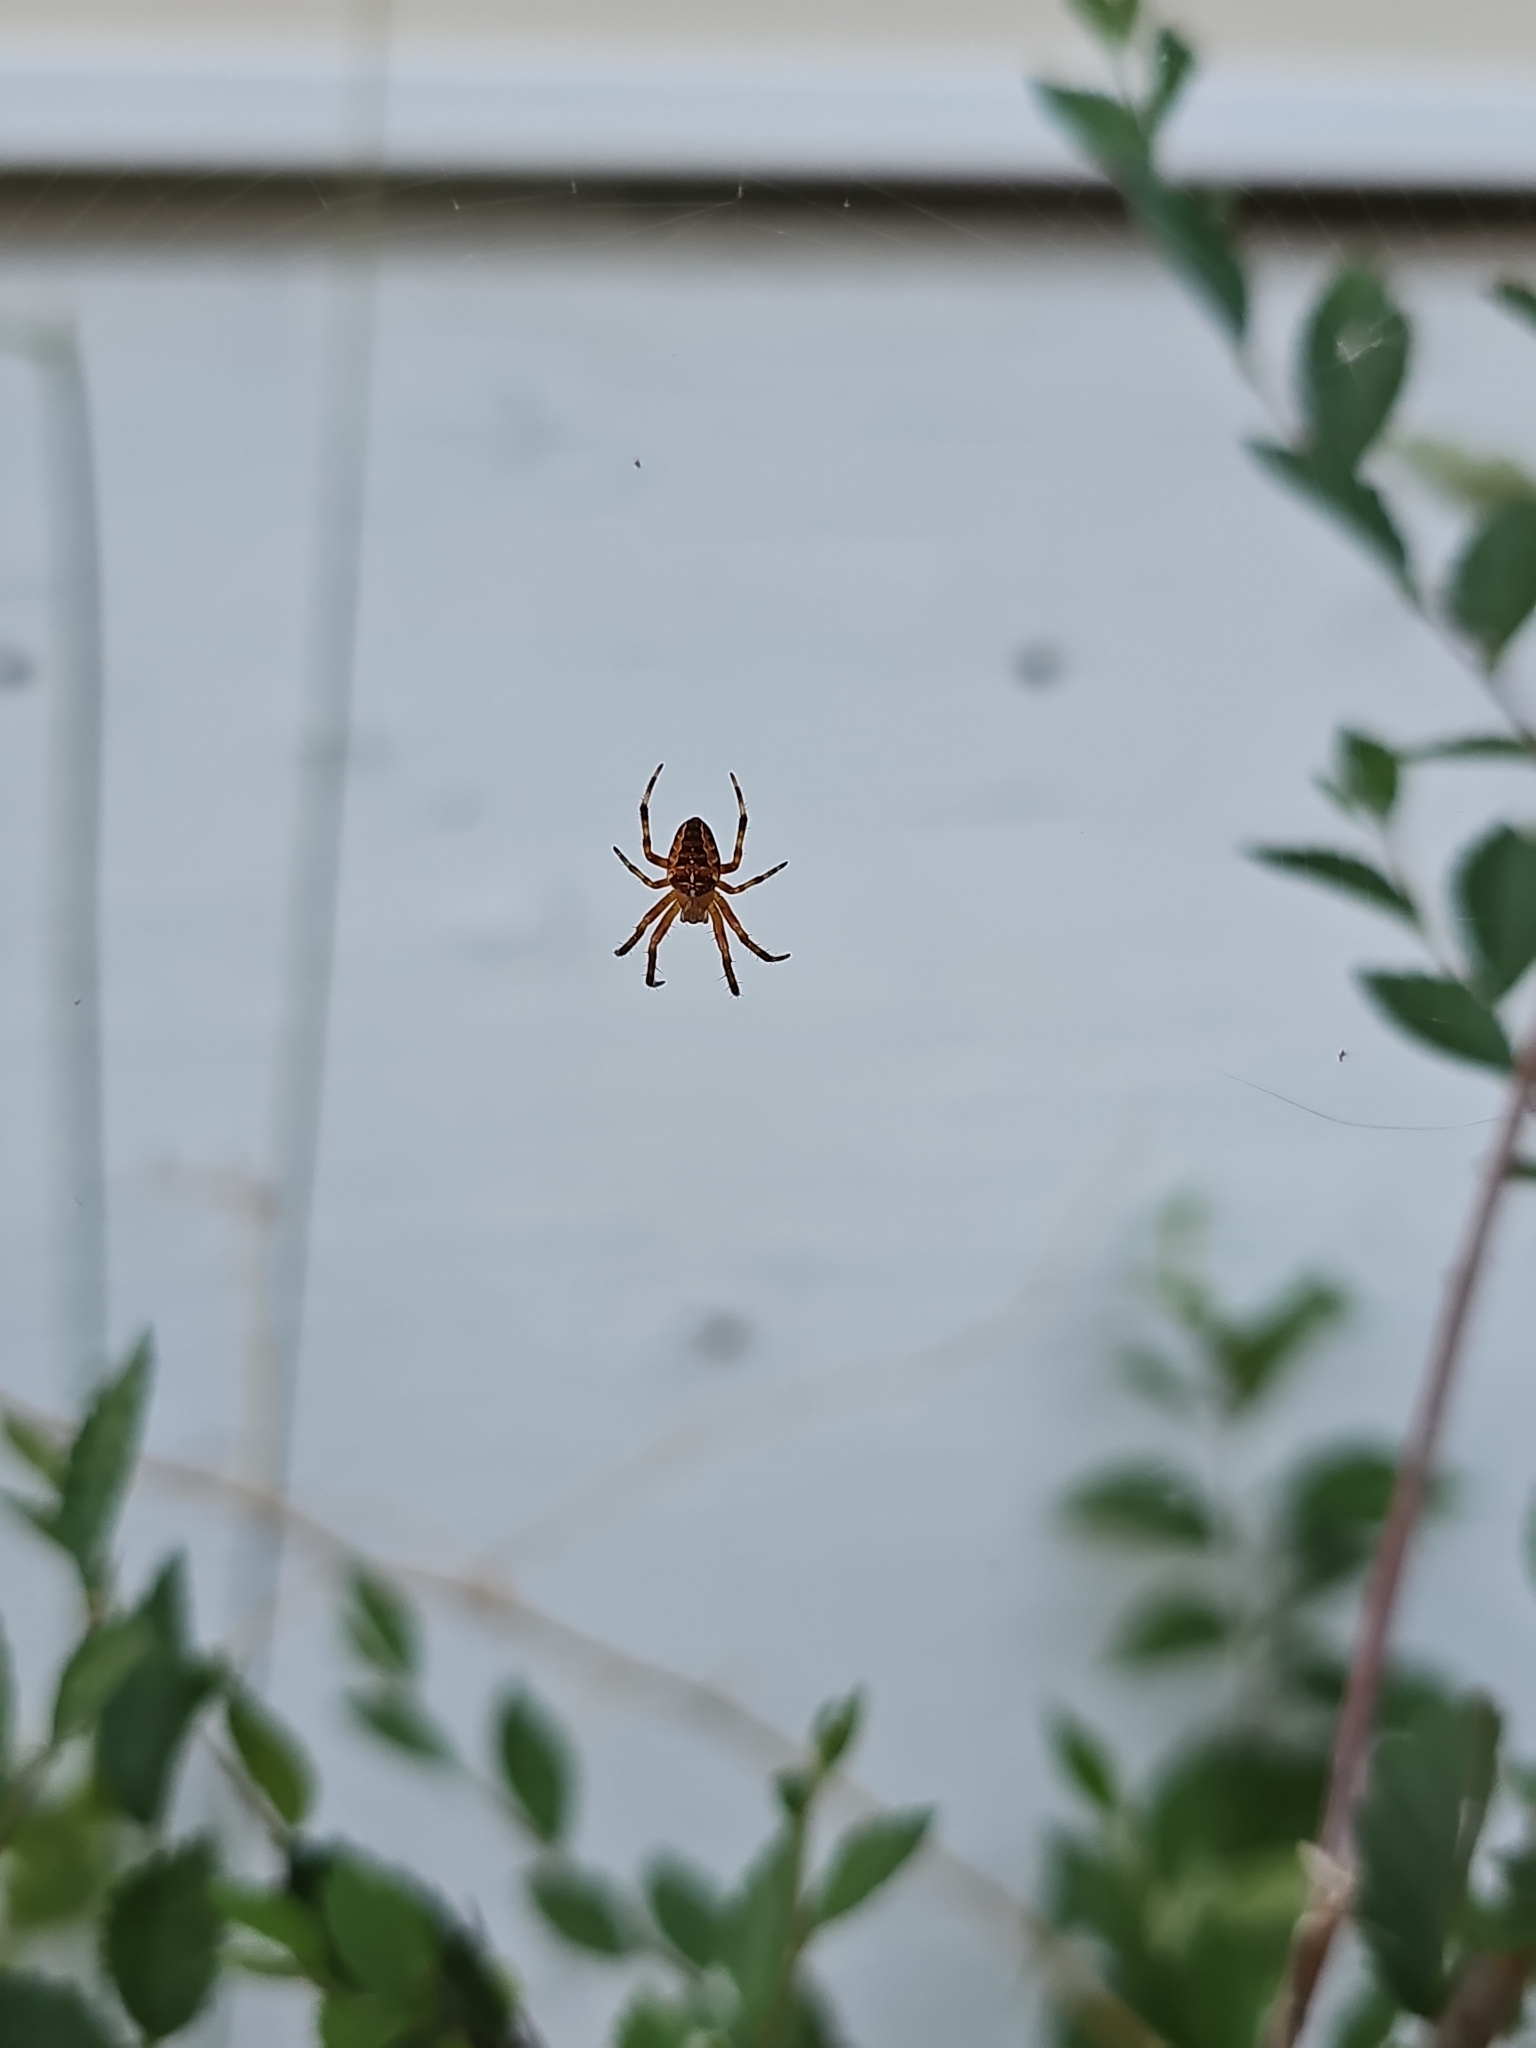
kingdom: Animalia
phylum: Arthropoda
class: Arachnida
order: Araneae
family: Araneidae
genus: Araneus
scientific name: Araneus diadematus
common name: Cross orbweaver
